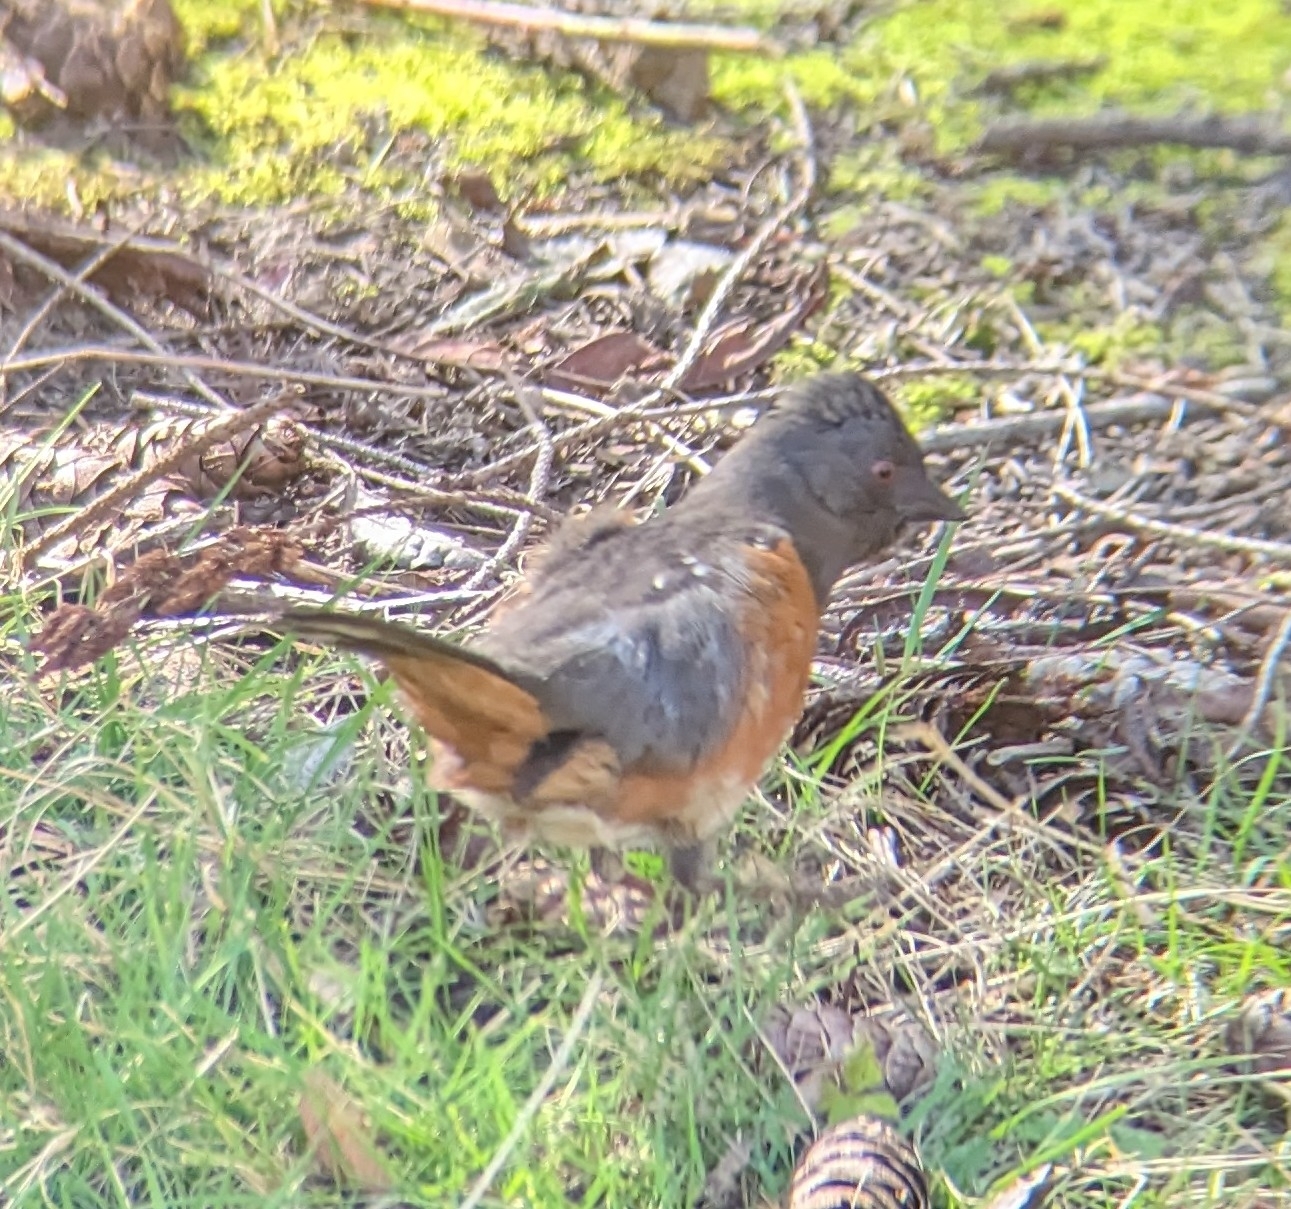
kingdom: Animalia
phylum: Chordata
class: Aves
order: Passeriformes
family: Passerellidae
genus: Pipilo
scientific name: Pipilo maculatus
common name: Spotted towhee
